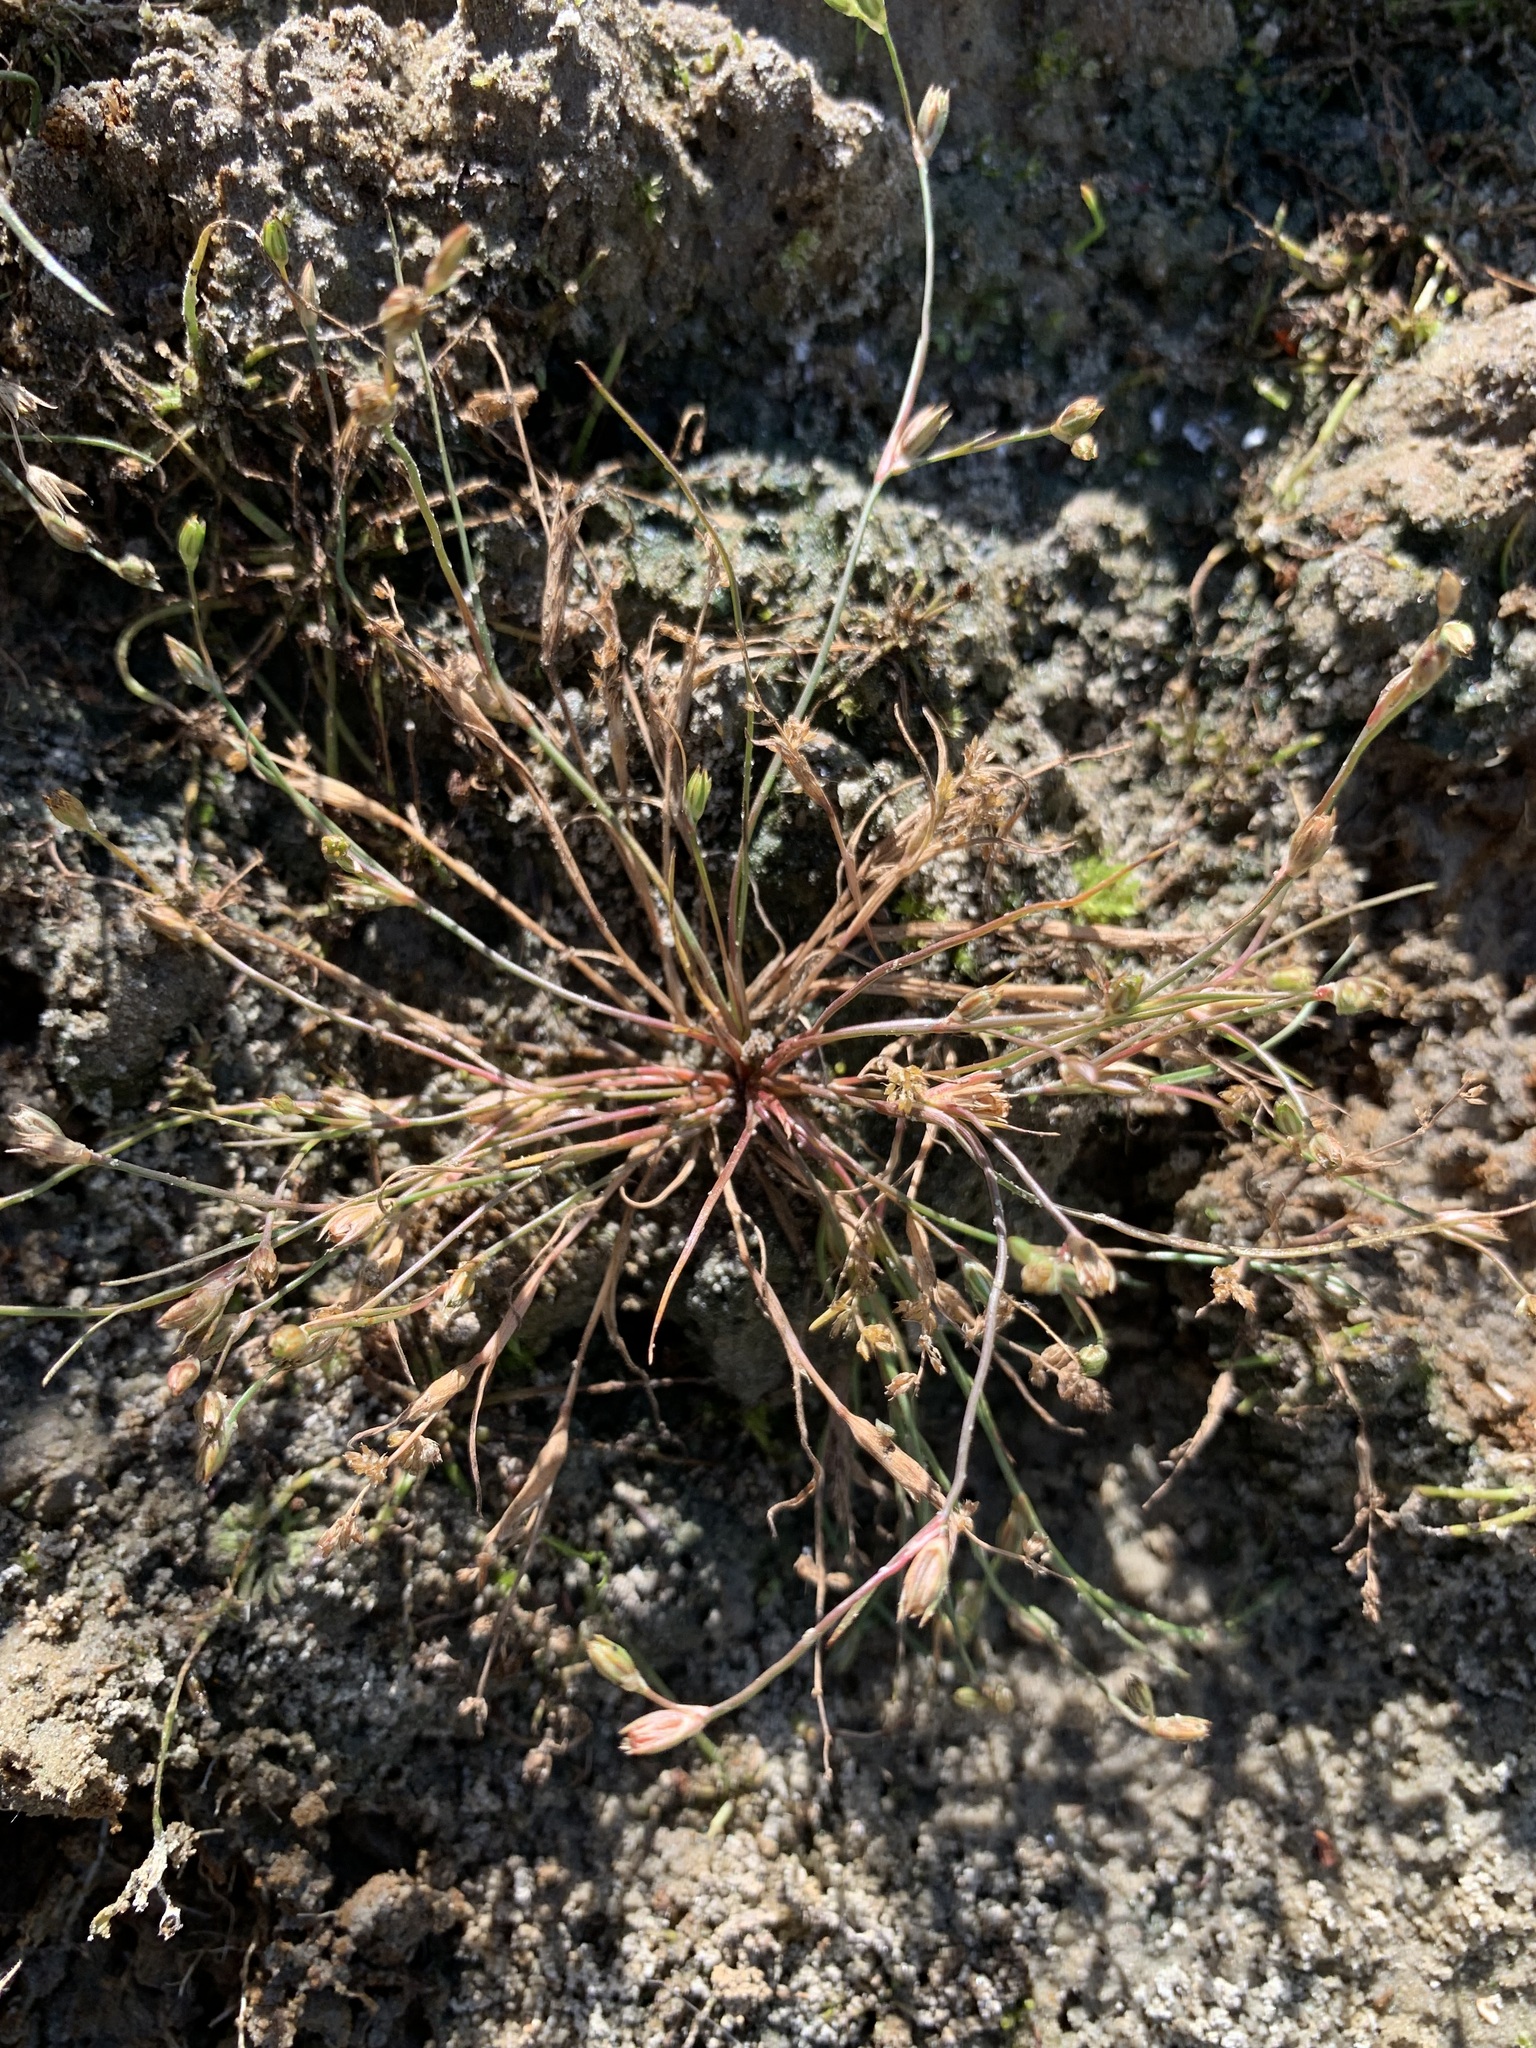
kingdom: Plantae
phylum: Tracheophyta
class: Liliopsida
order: Poales
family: Juncaceae
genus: Juncus
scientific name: Juncus bufonius
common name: Toad rush
